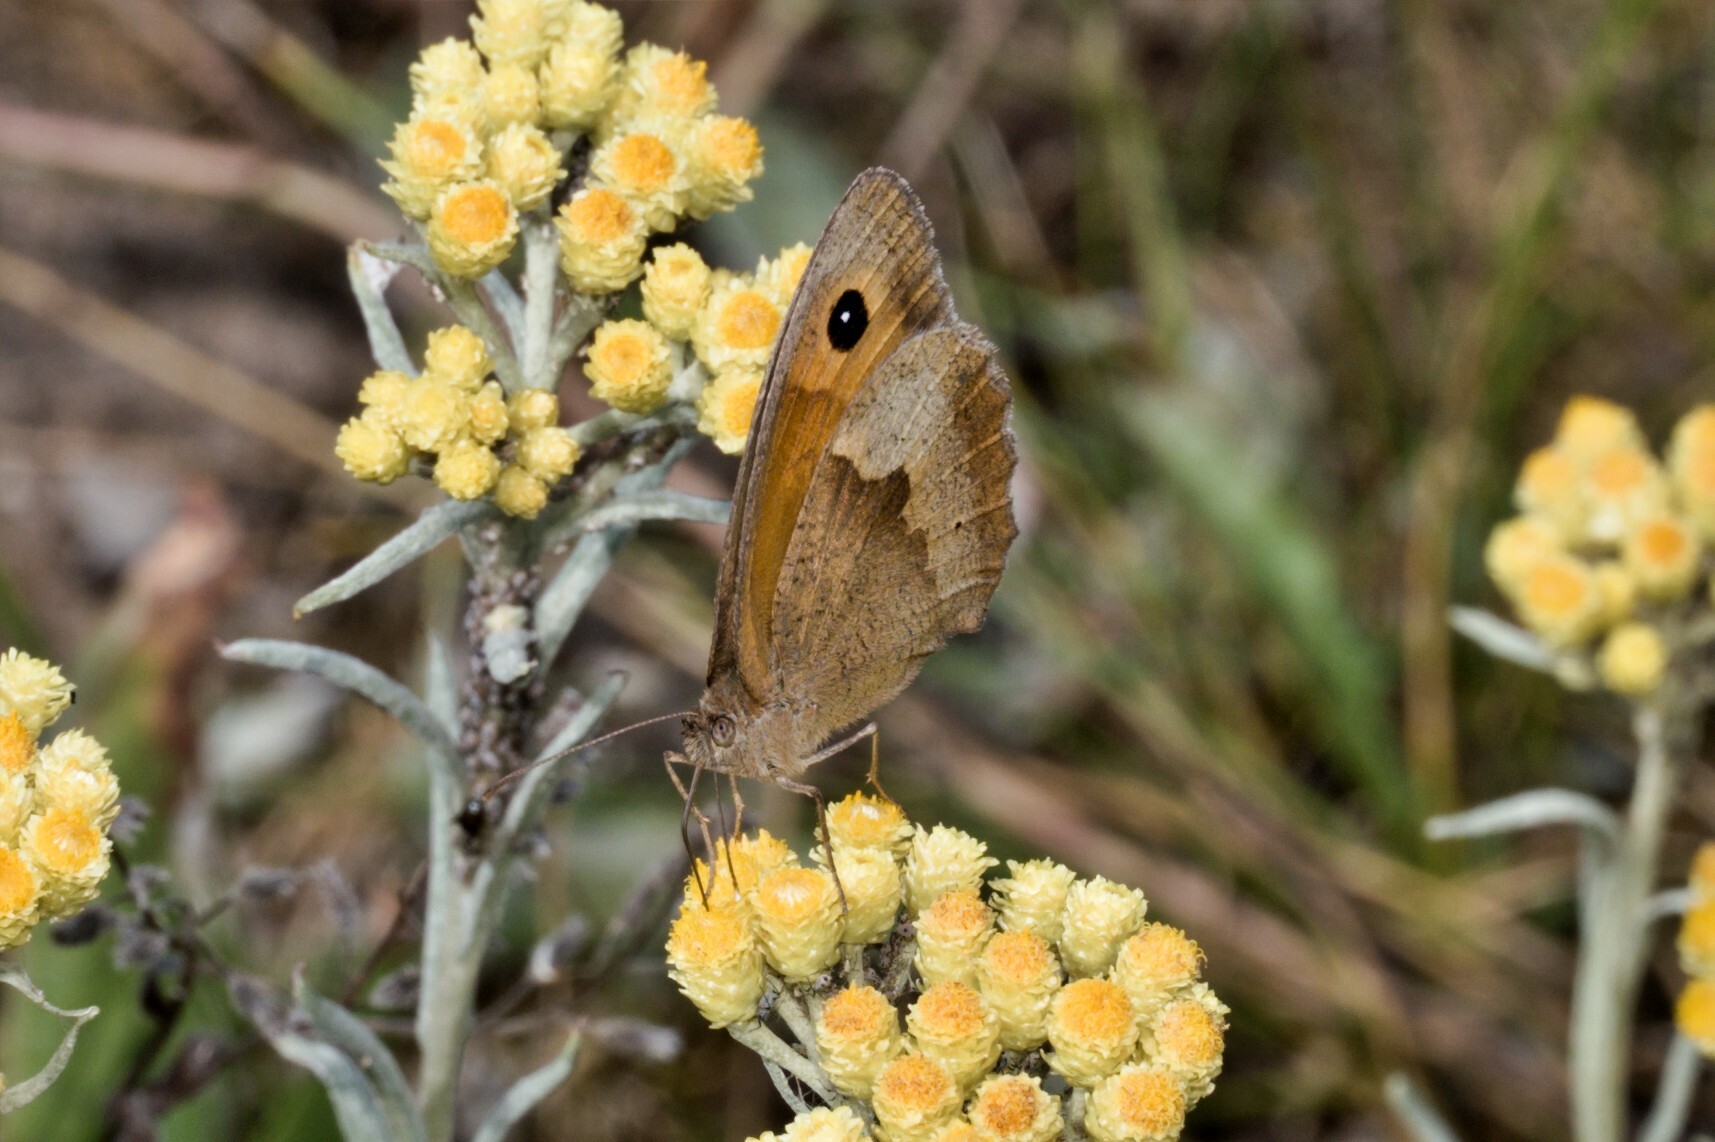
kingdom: Animalia
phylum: Arthropoda
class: Insecta
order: Lepidoptera
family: Nymphalidae
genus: Maniola
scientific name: Maniola jurtina
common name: Meadow brown
